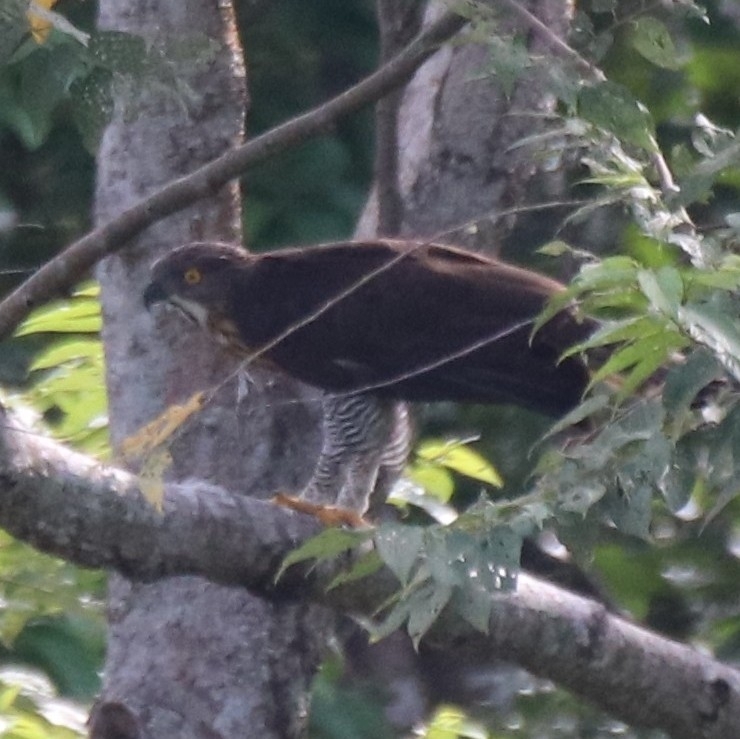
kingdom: Animalia
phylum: Chordata
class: Aves
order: Accipitriformes
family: Accipitridae
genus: Nisaetus
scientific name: Nisaetus lanceolatus
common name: Sulawesi hawk-eagle
